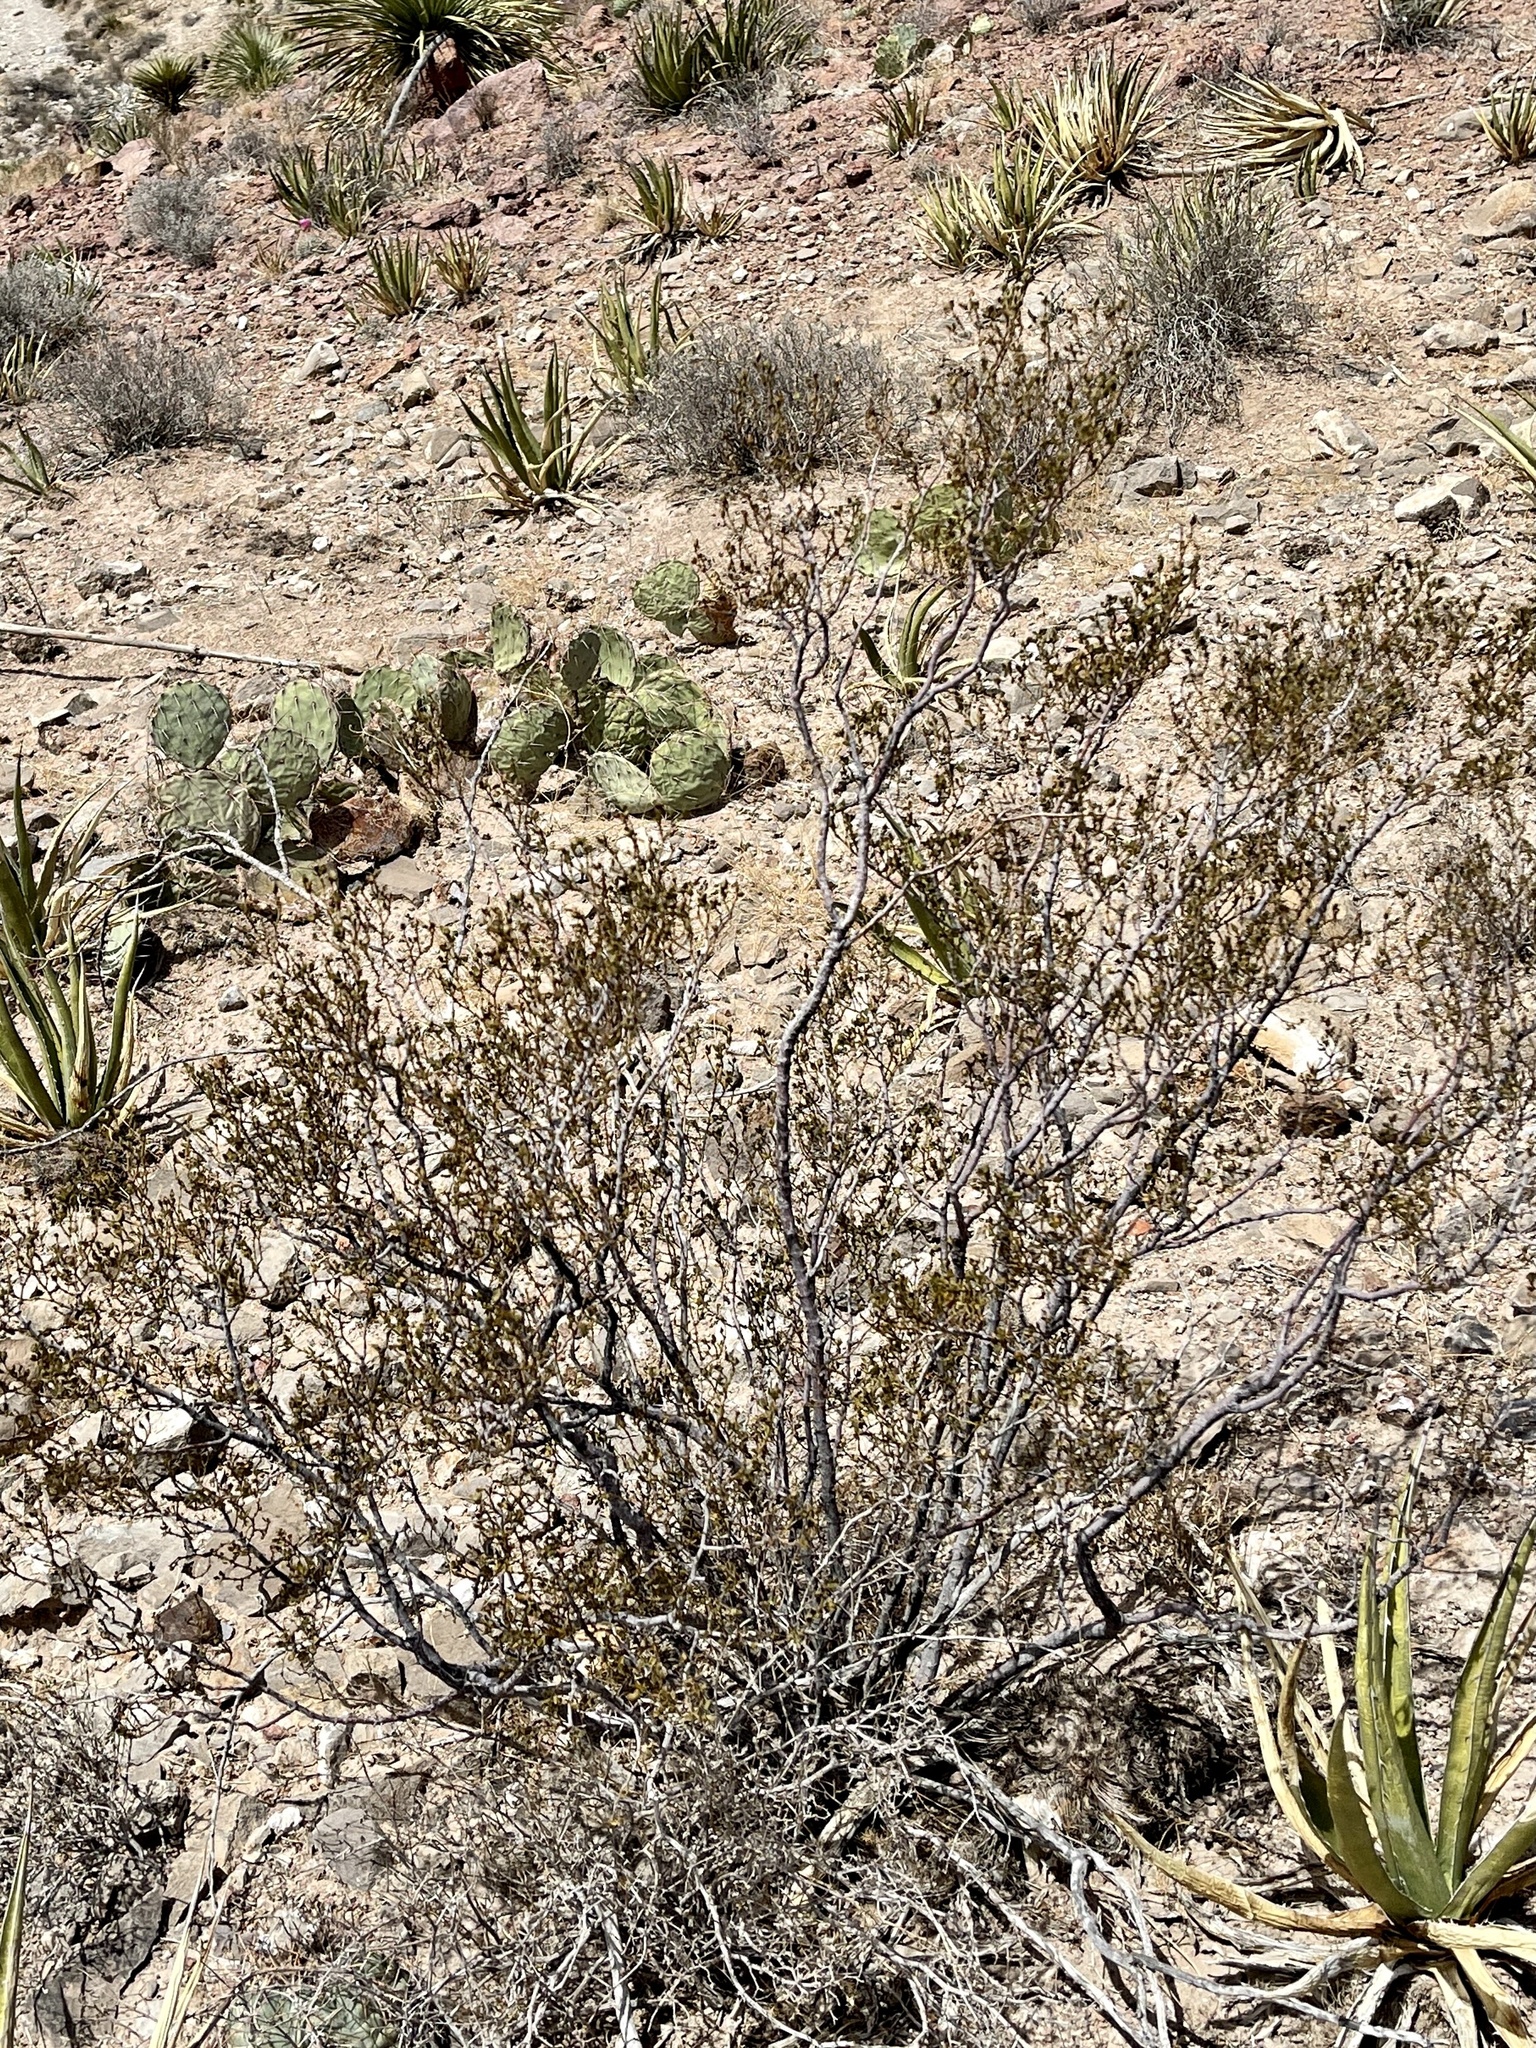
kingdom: Plantae
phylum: Tracheophyta
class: Magnoliopsida
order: Zygophyllales
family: Zygophyllaceae
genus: Larrea
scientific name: Larrea tridentata
